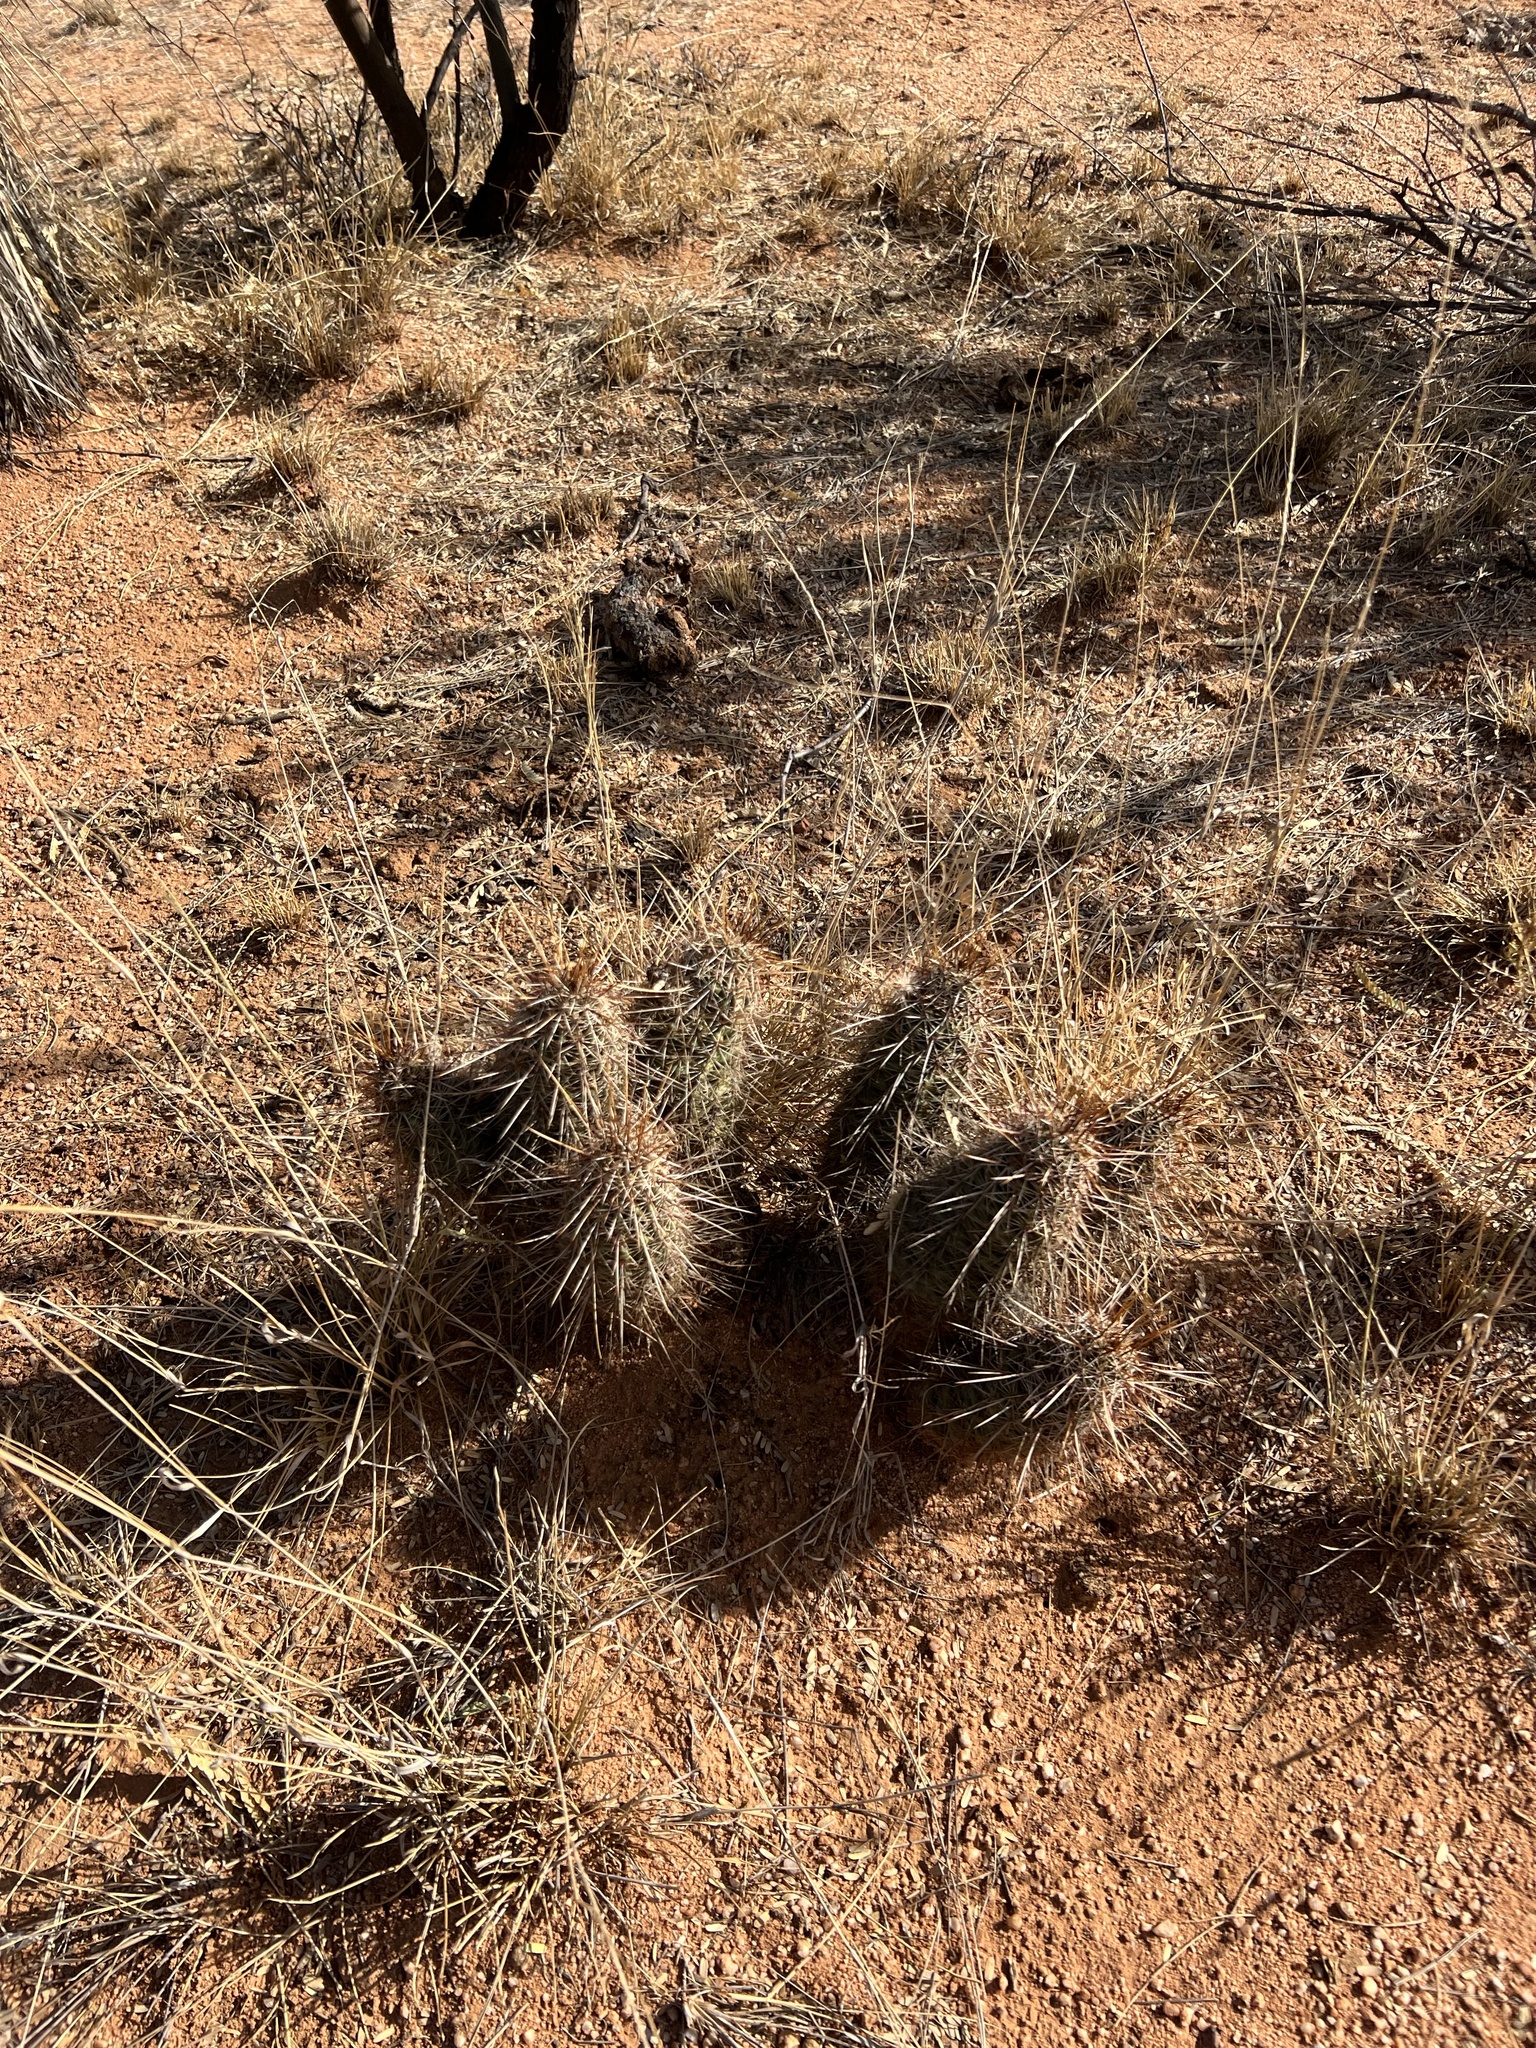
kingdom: Plantae
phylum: Tracheophyta
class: Magnoliopsida
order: Caryophyllales
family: Cactaceae
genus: Echinocereus
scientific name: Echinocereus fasciculatus
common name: Bundle hedgehog
